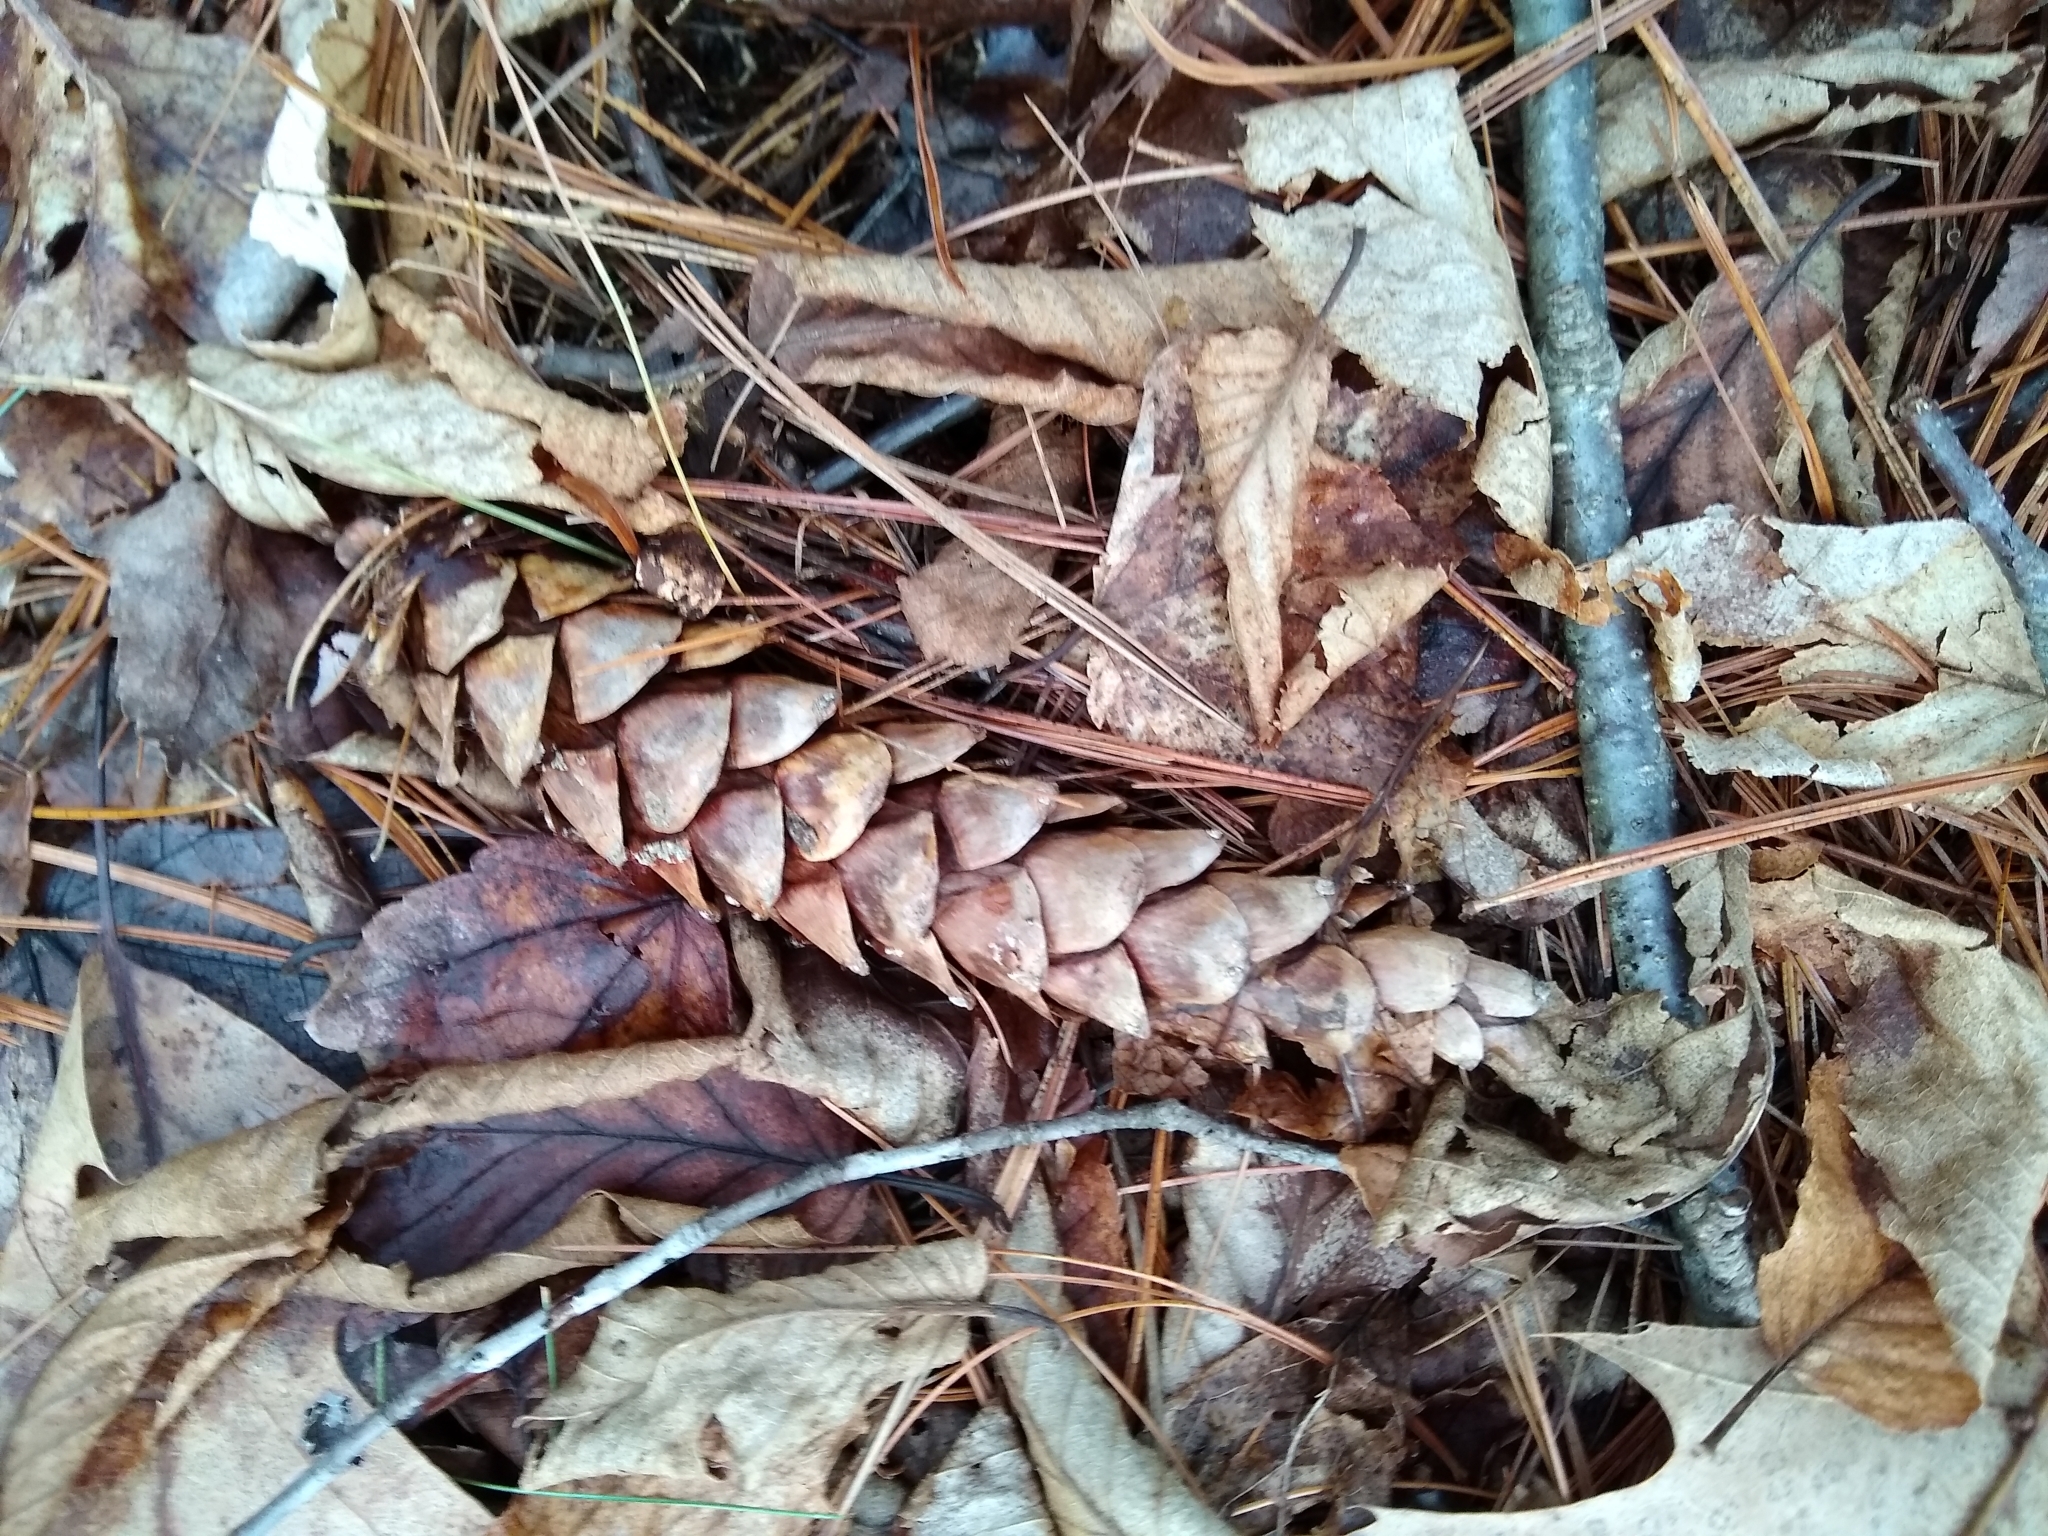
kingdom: Plantae
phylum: Tracheophyta
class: Pinopsida
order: Pinales
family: Pinaceae
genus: Pinus
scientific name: Pinus strobus
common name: Weymouth pine
